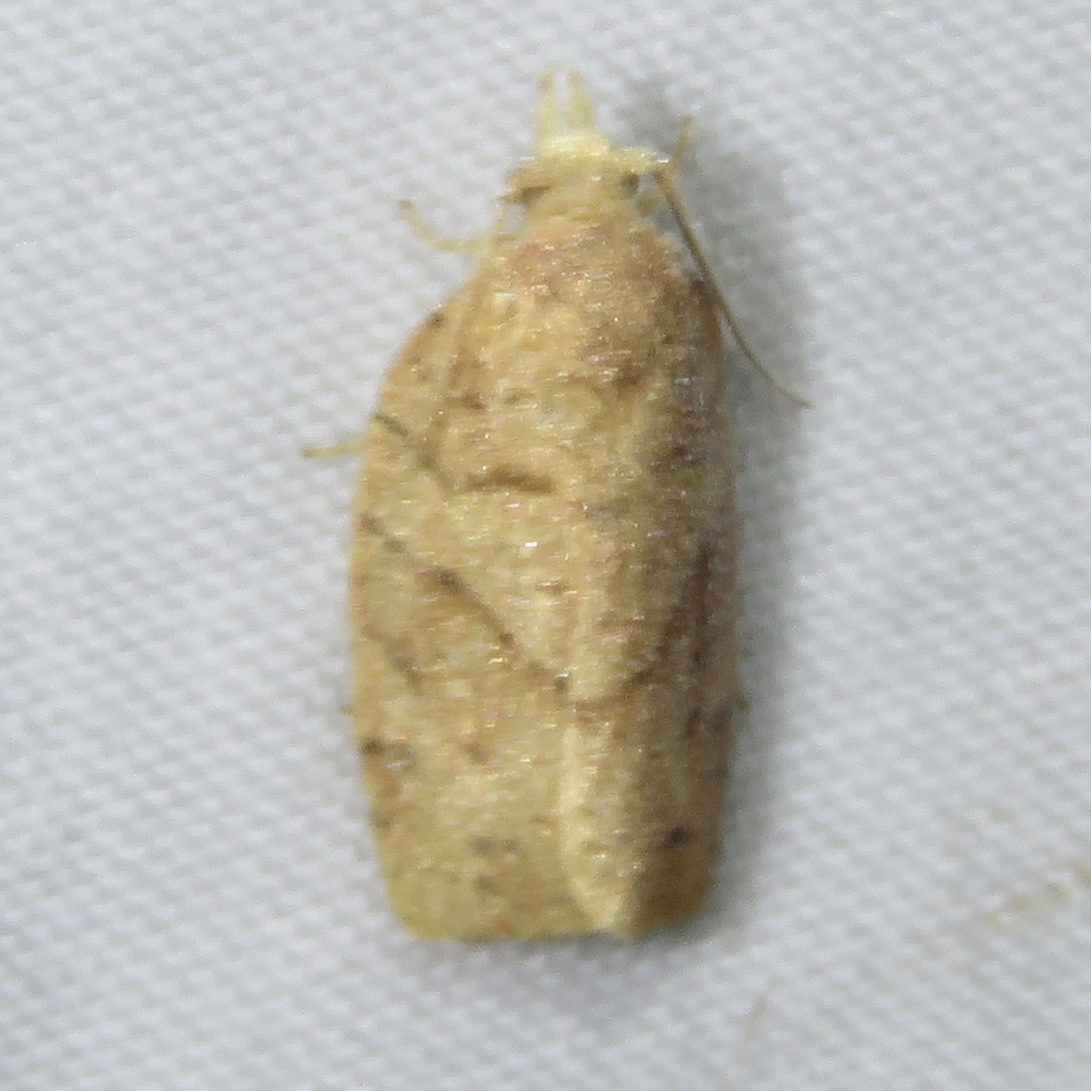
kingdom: Animalia
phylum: Arthropoda
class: Insecta
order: Lepidoptera
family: Tortricidae
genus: Pandemis
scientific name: Pandemis lamprosana
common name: Woodgrain leafroller moth
